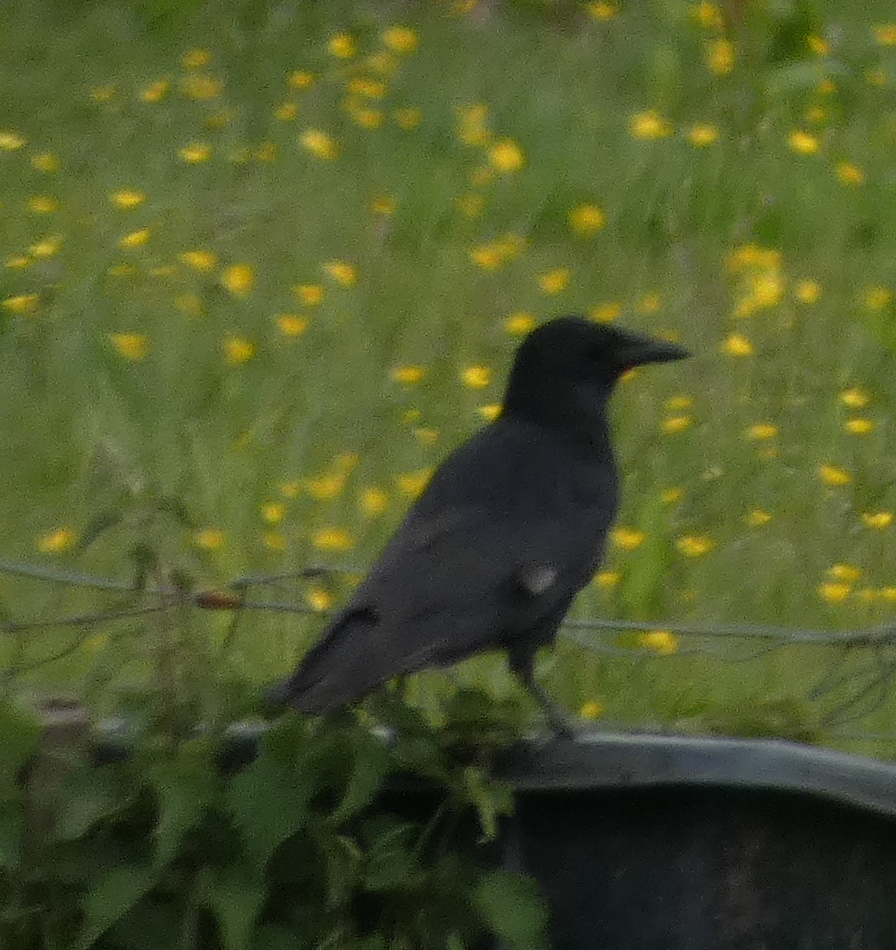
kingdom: Animalia
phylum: Chordata
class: Aves
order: Passeriformes
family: Corvidae
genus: Corvus
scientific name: Corvus corone
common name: Carrion crow
